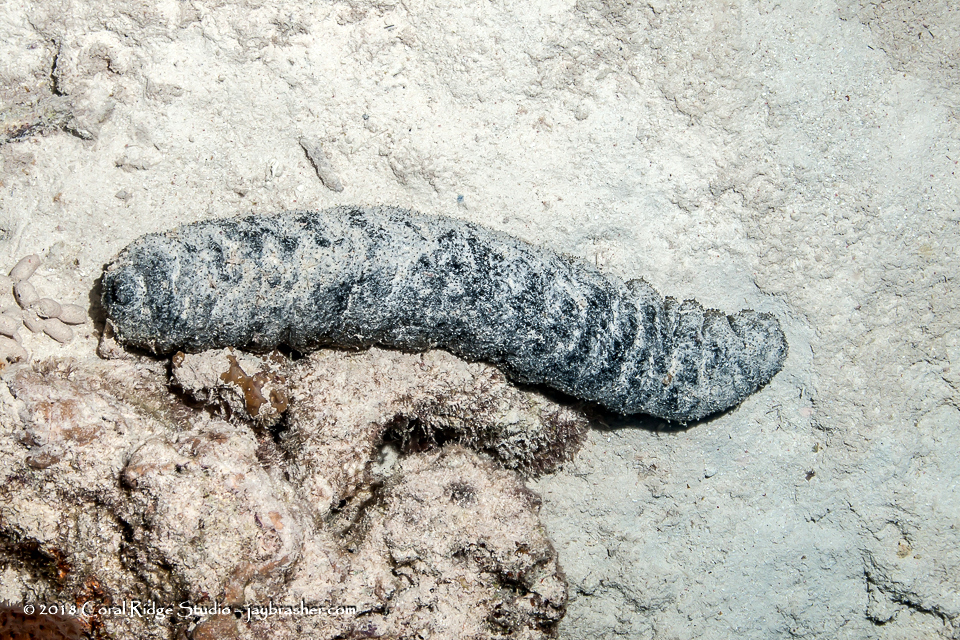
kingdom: Animalia
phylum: Echinodermata
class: Holothuroidea
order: Holothuriida
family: Holothuriidae
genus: Holothuria
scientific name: Holothuria mexicana
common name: Donkey dung sea cucumber
